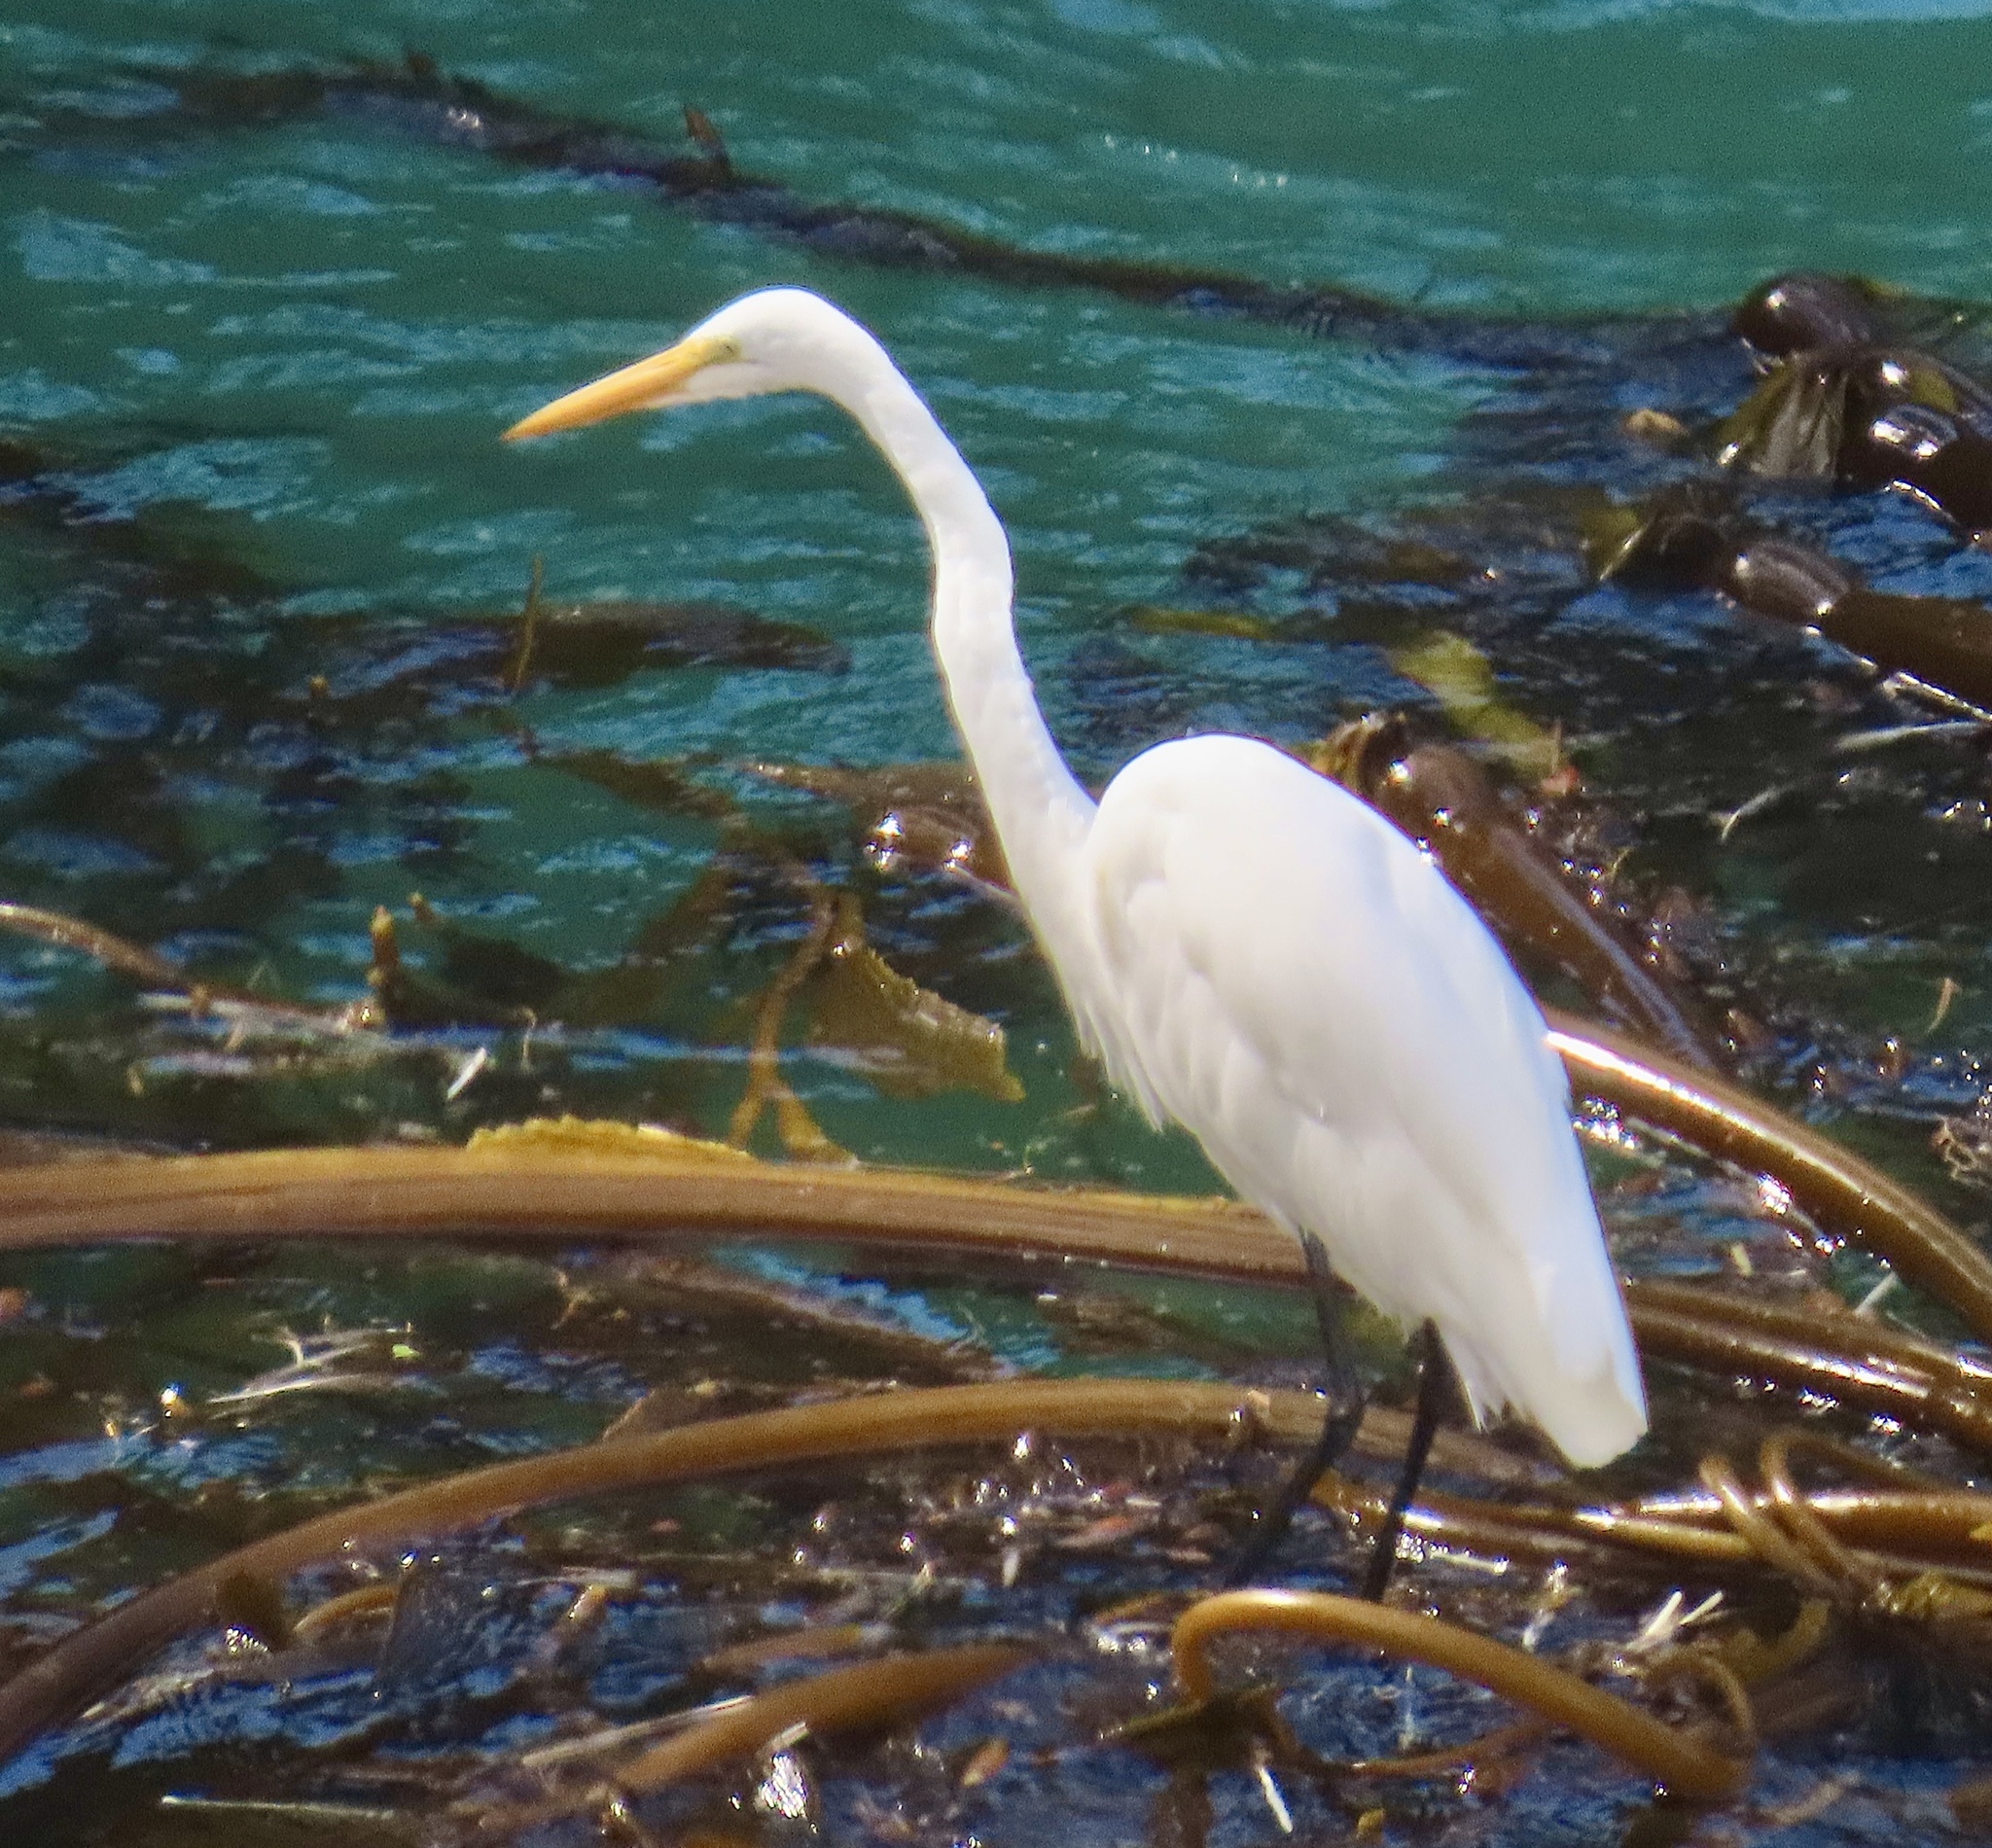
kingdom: Animalia
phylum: Chordata
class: Aves
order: Pelecaniformes
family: Ardeidae
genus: Ardea
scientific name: Ardea alba
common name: Great egret
